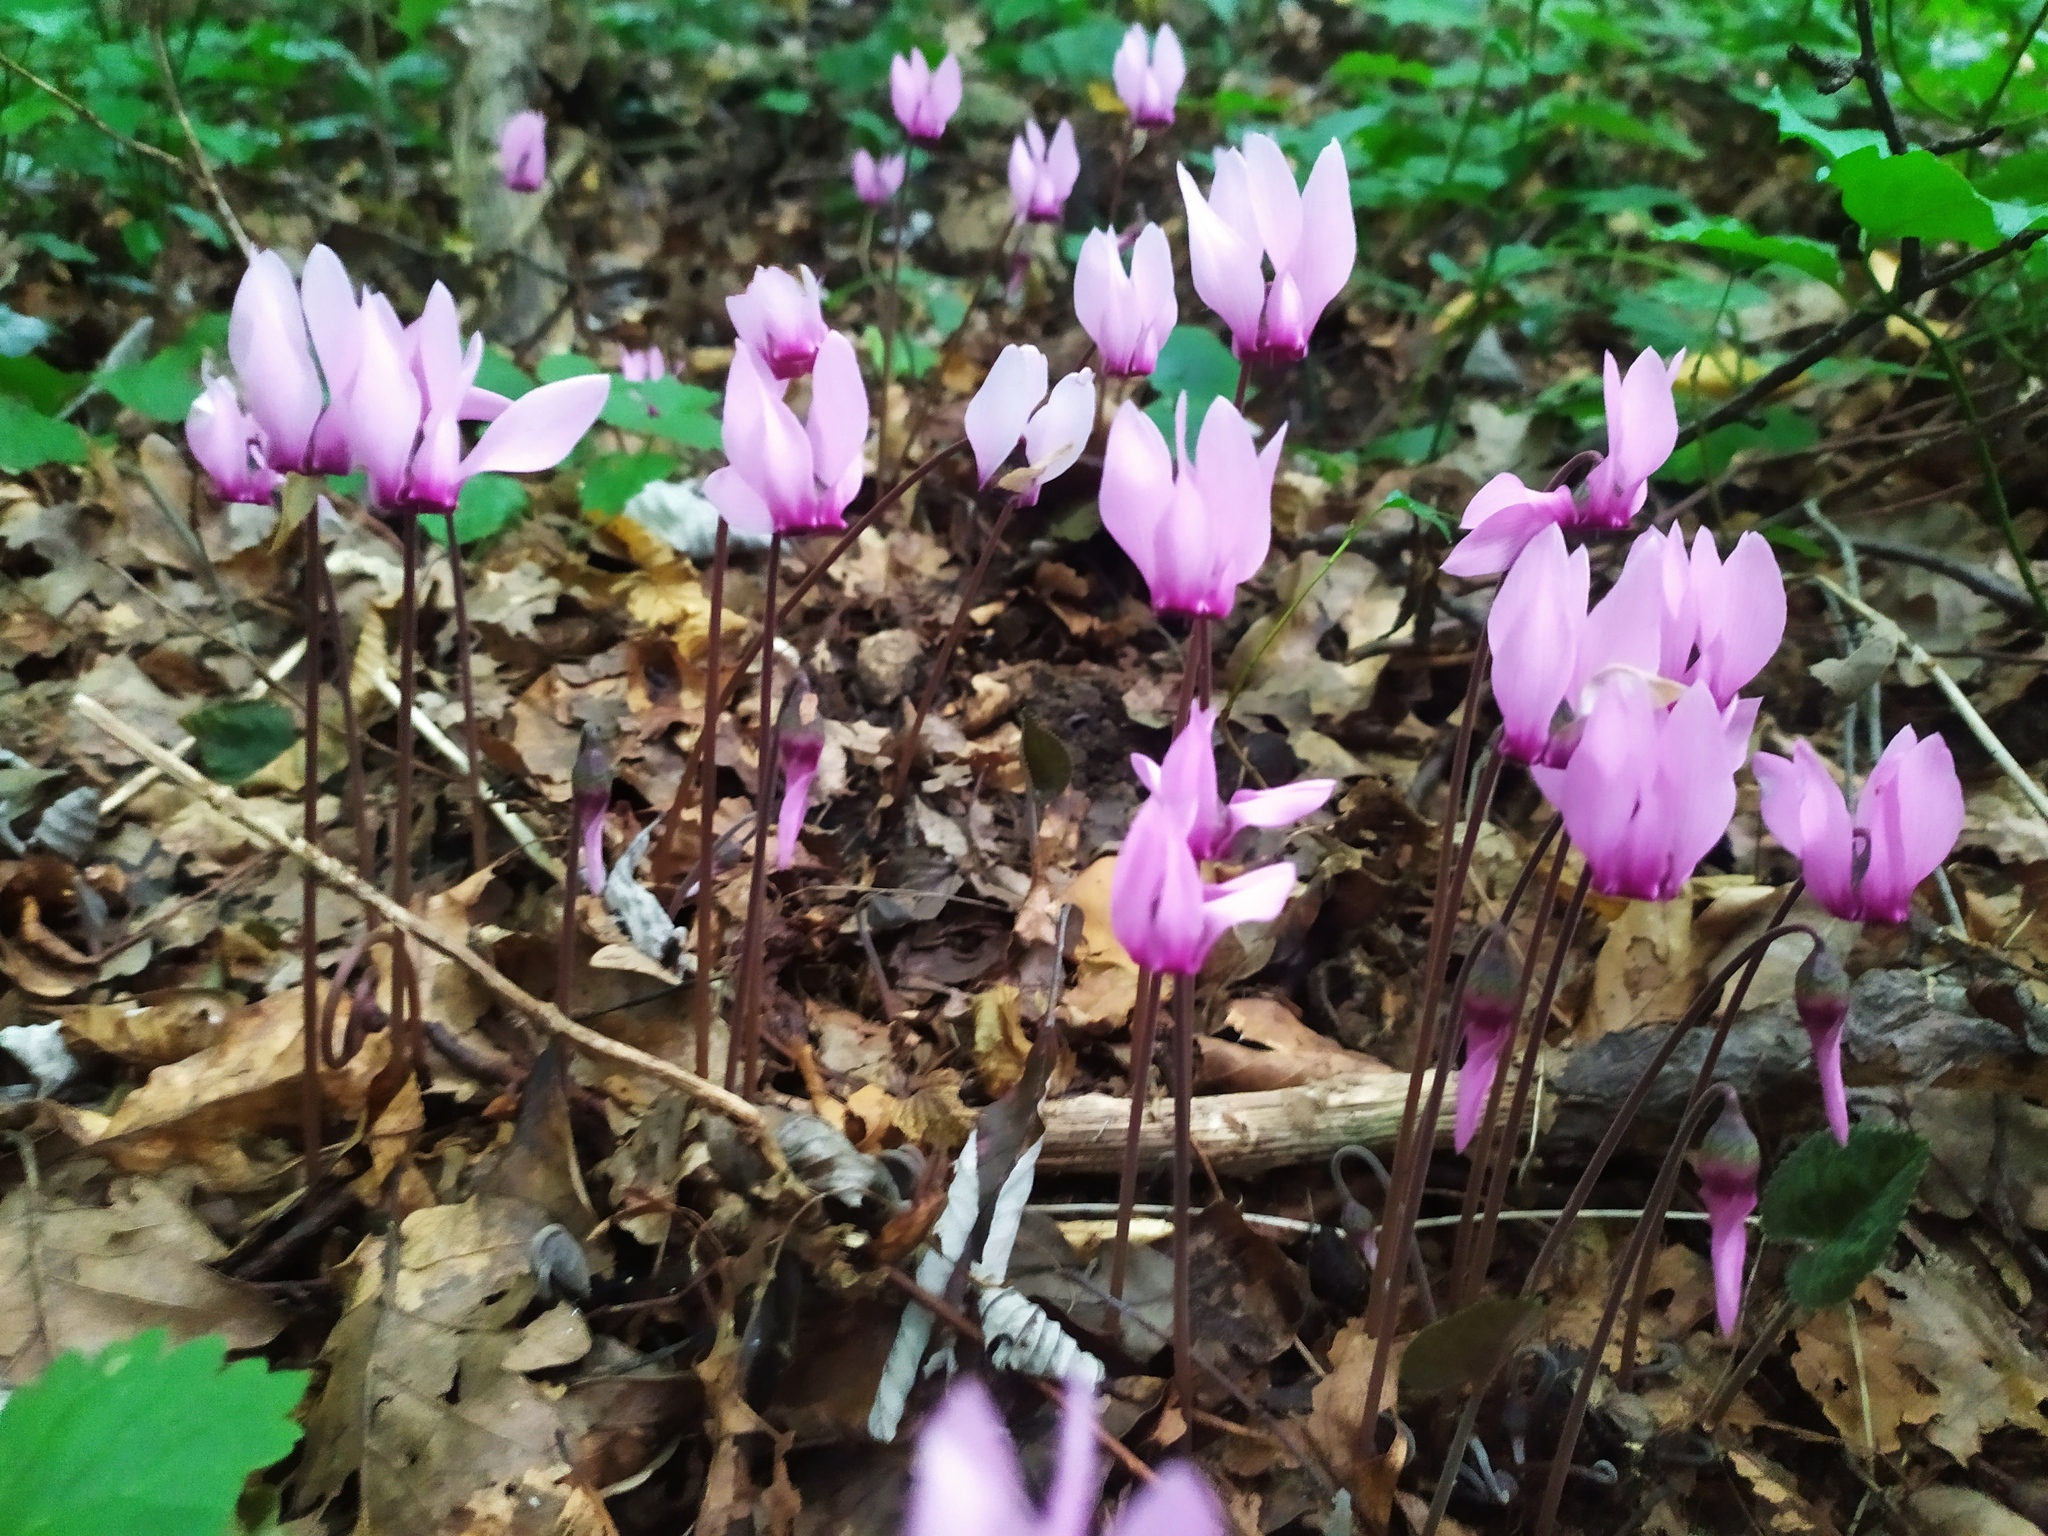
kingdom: Plantae
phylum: Tracheophyta
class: Magnoliopsida
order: Ericales
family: Primulaceae
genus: Cyclamen
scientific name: Cyclamen purpurascens
